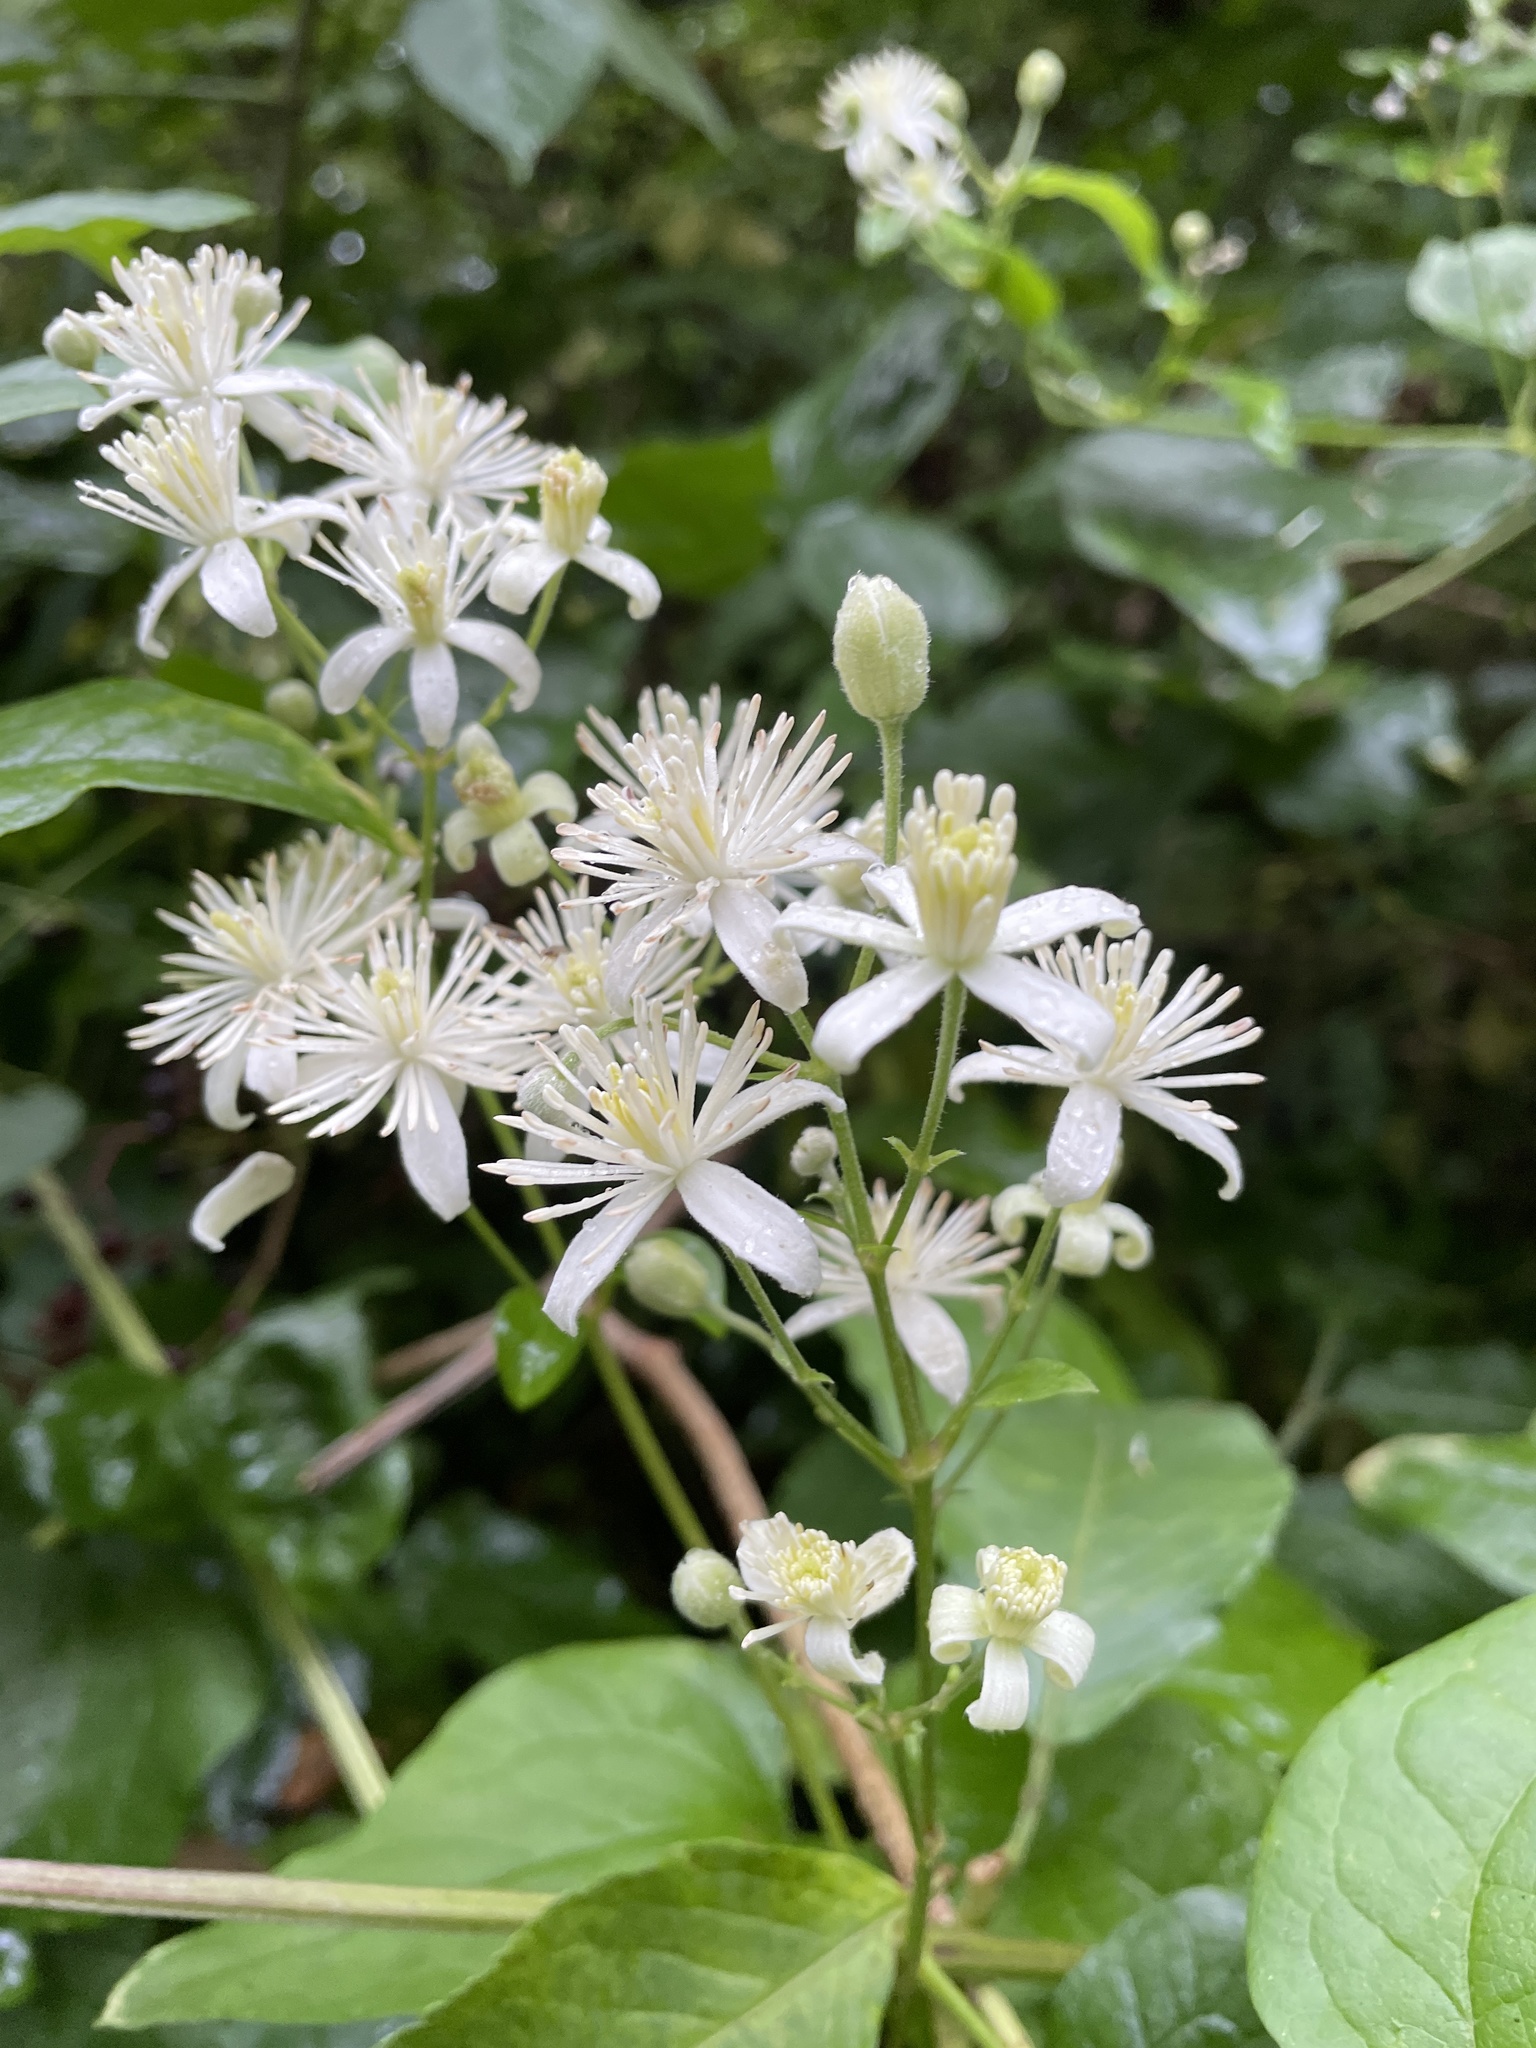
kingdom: Plantae
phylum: Tracheophyta
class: Magnoliopsida
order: Ranunculales
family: Ranunculaceae
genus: Clematis
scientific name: Clematis vitalba
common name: Evergreen clematis
